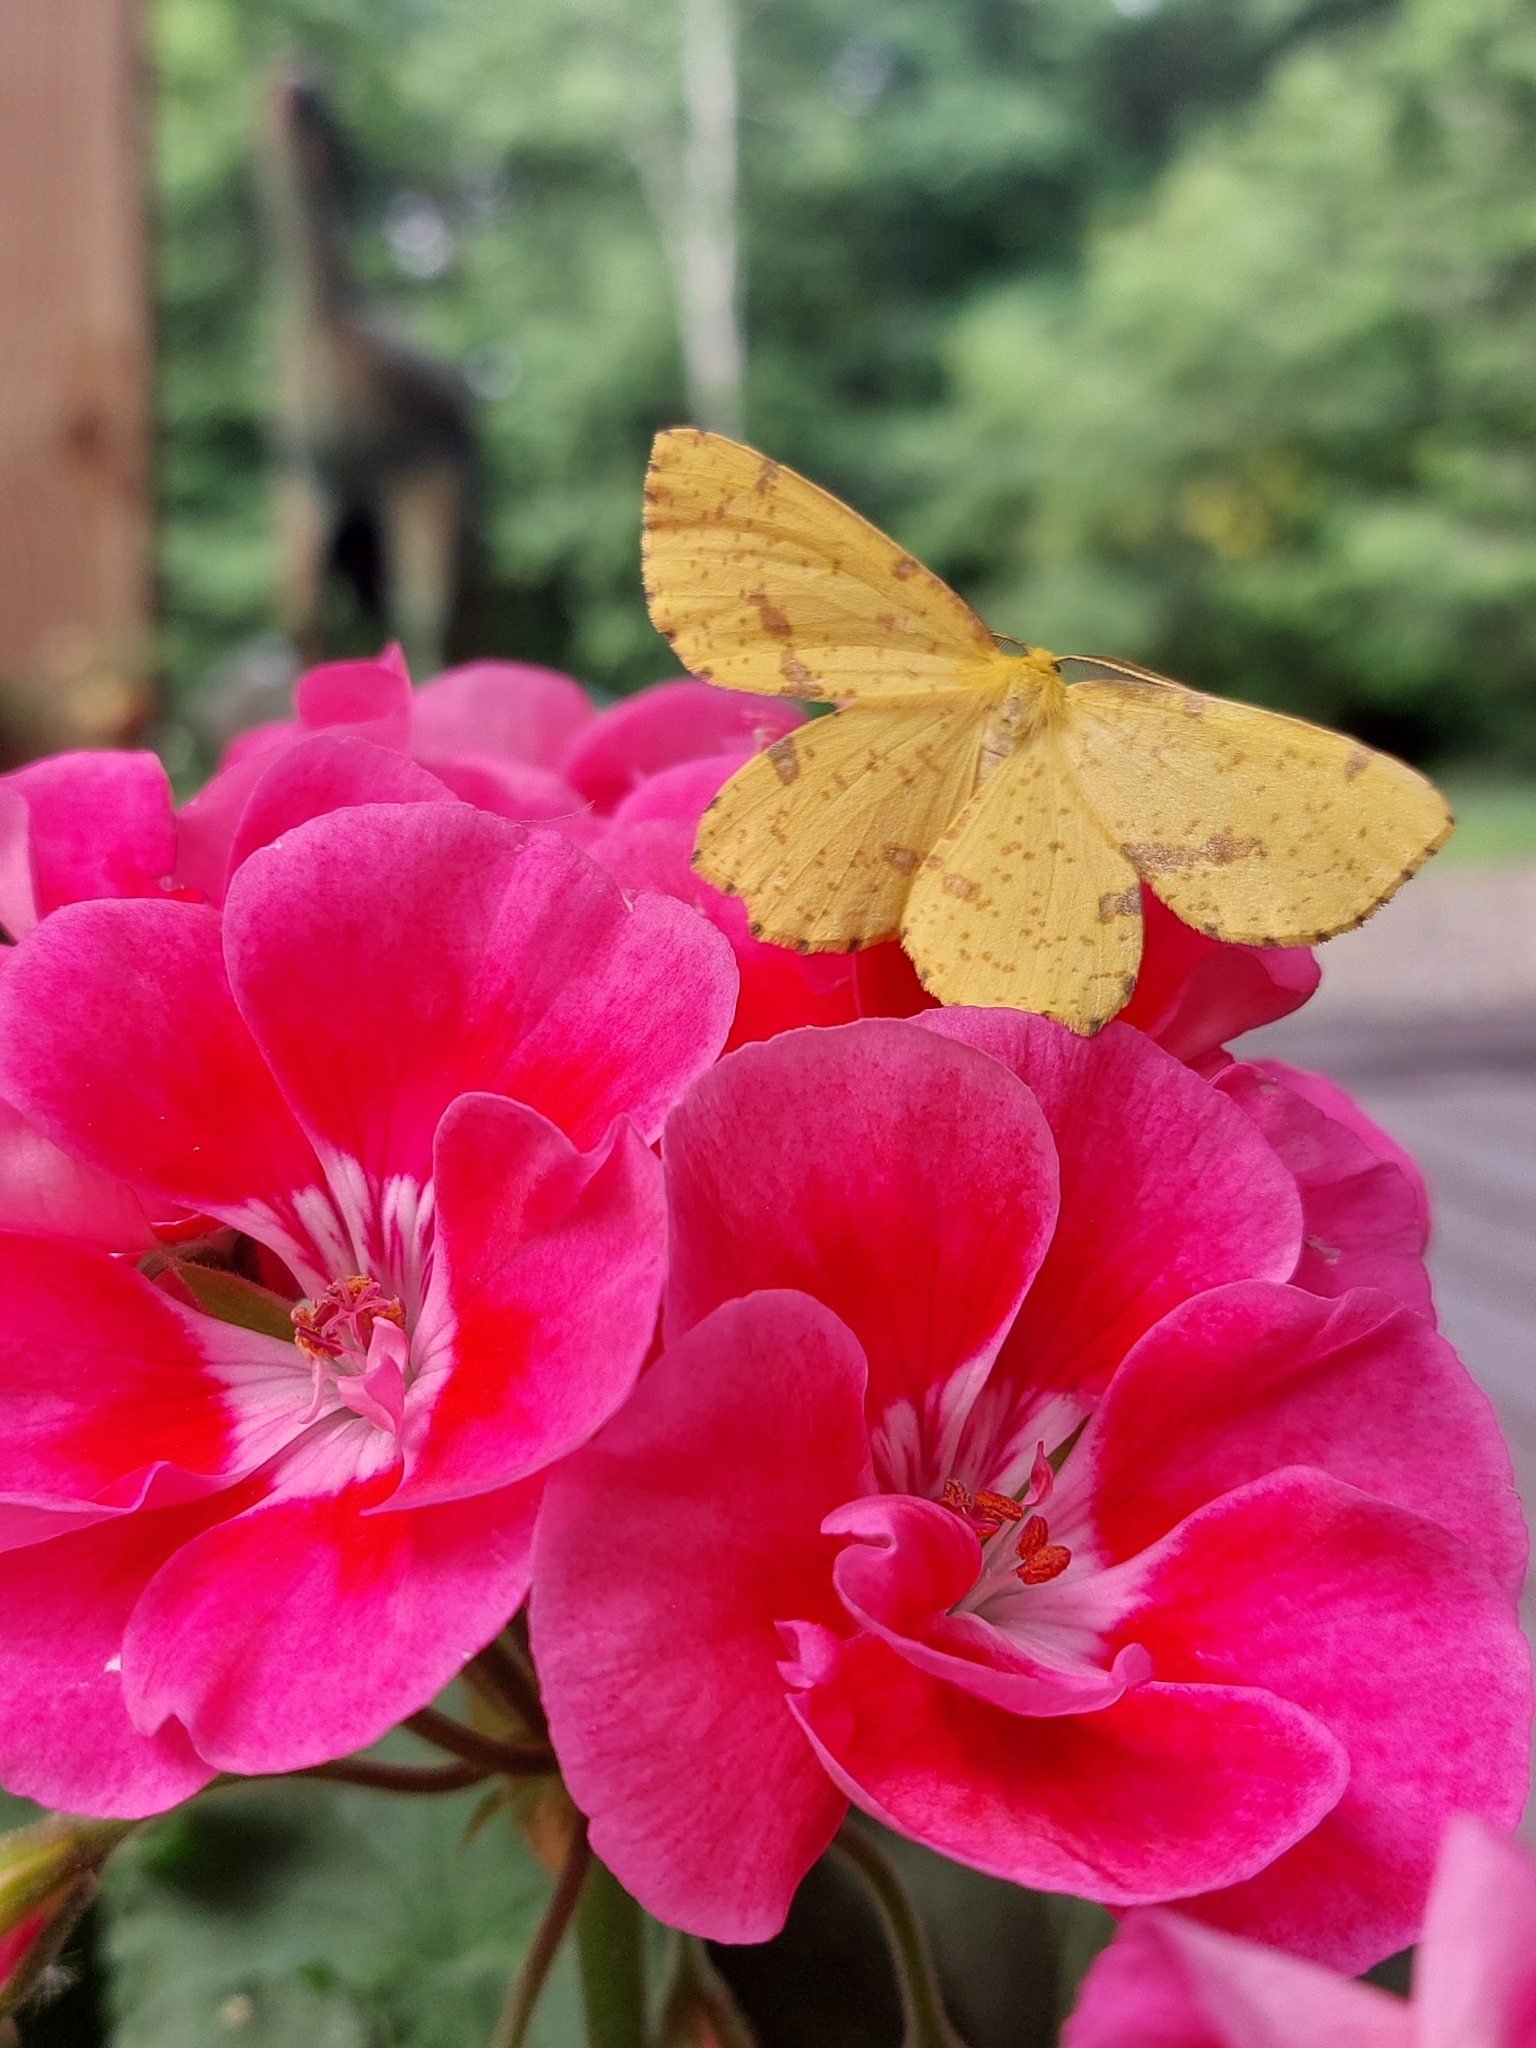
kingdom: Animalia
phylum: Arthropoda
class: Insecta
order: Lepidoptera
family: Geometridae
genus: Xanthotype
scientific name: Xanthotype
